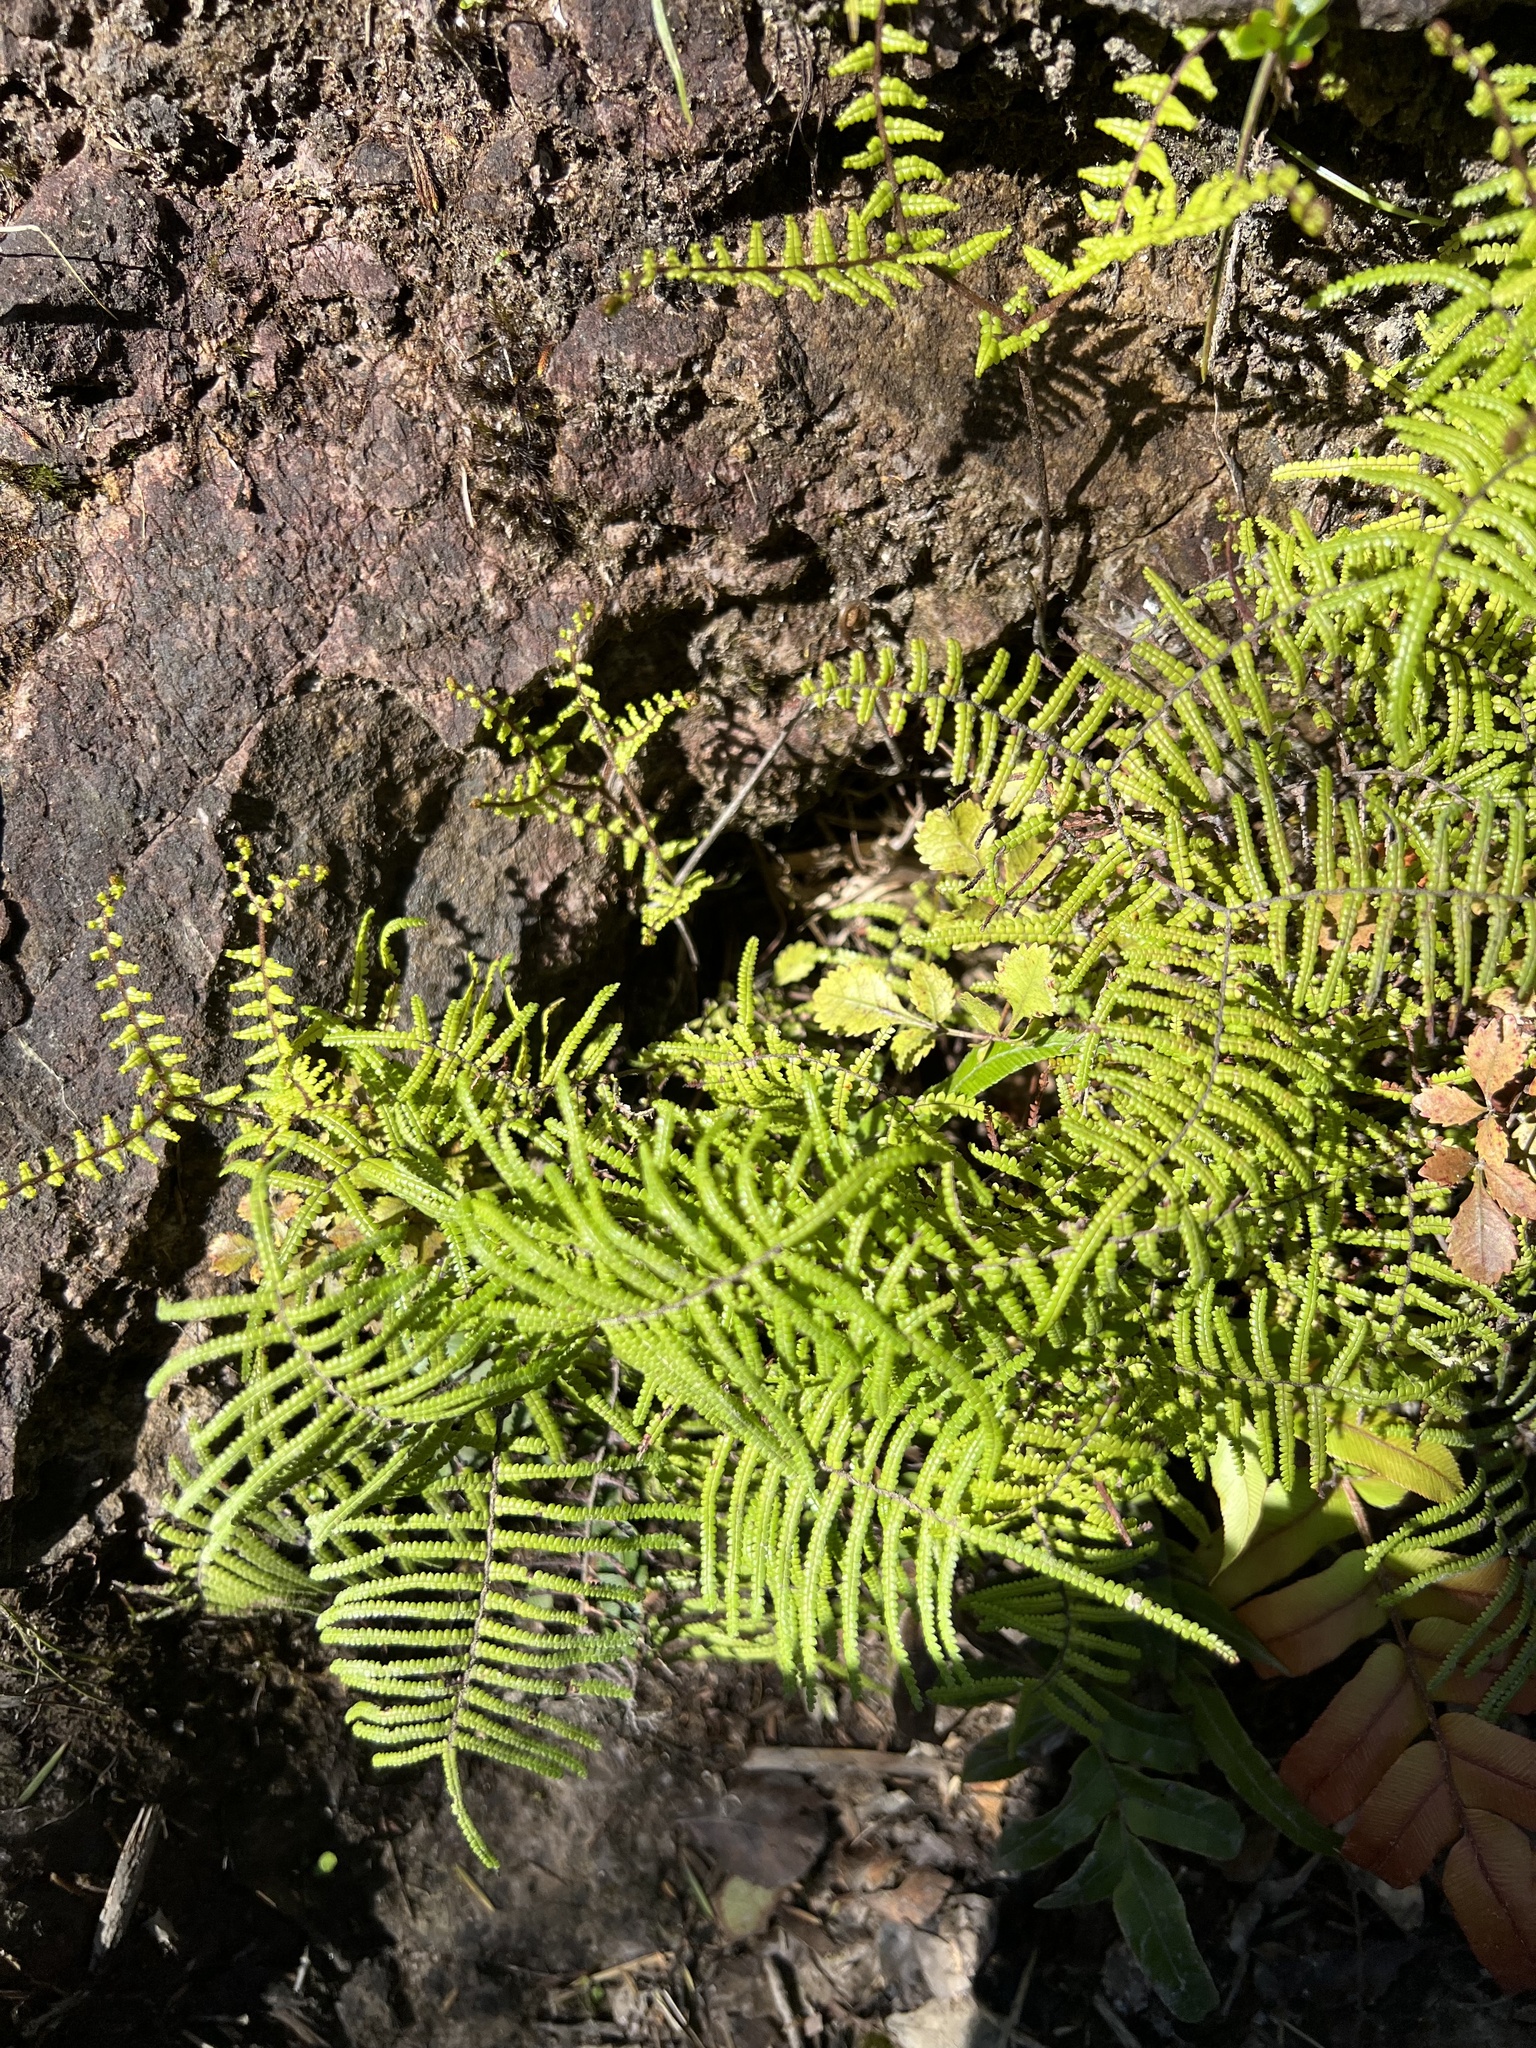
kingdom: Plantae
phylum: Tracheophyta
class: Polypodiopsida
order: Gleicheniales
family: Gleicheniaceae
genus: Gleichenia
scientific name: Gleichenia microphylla
